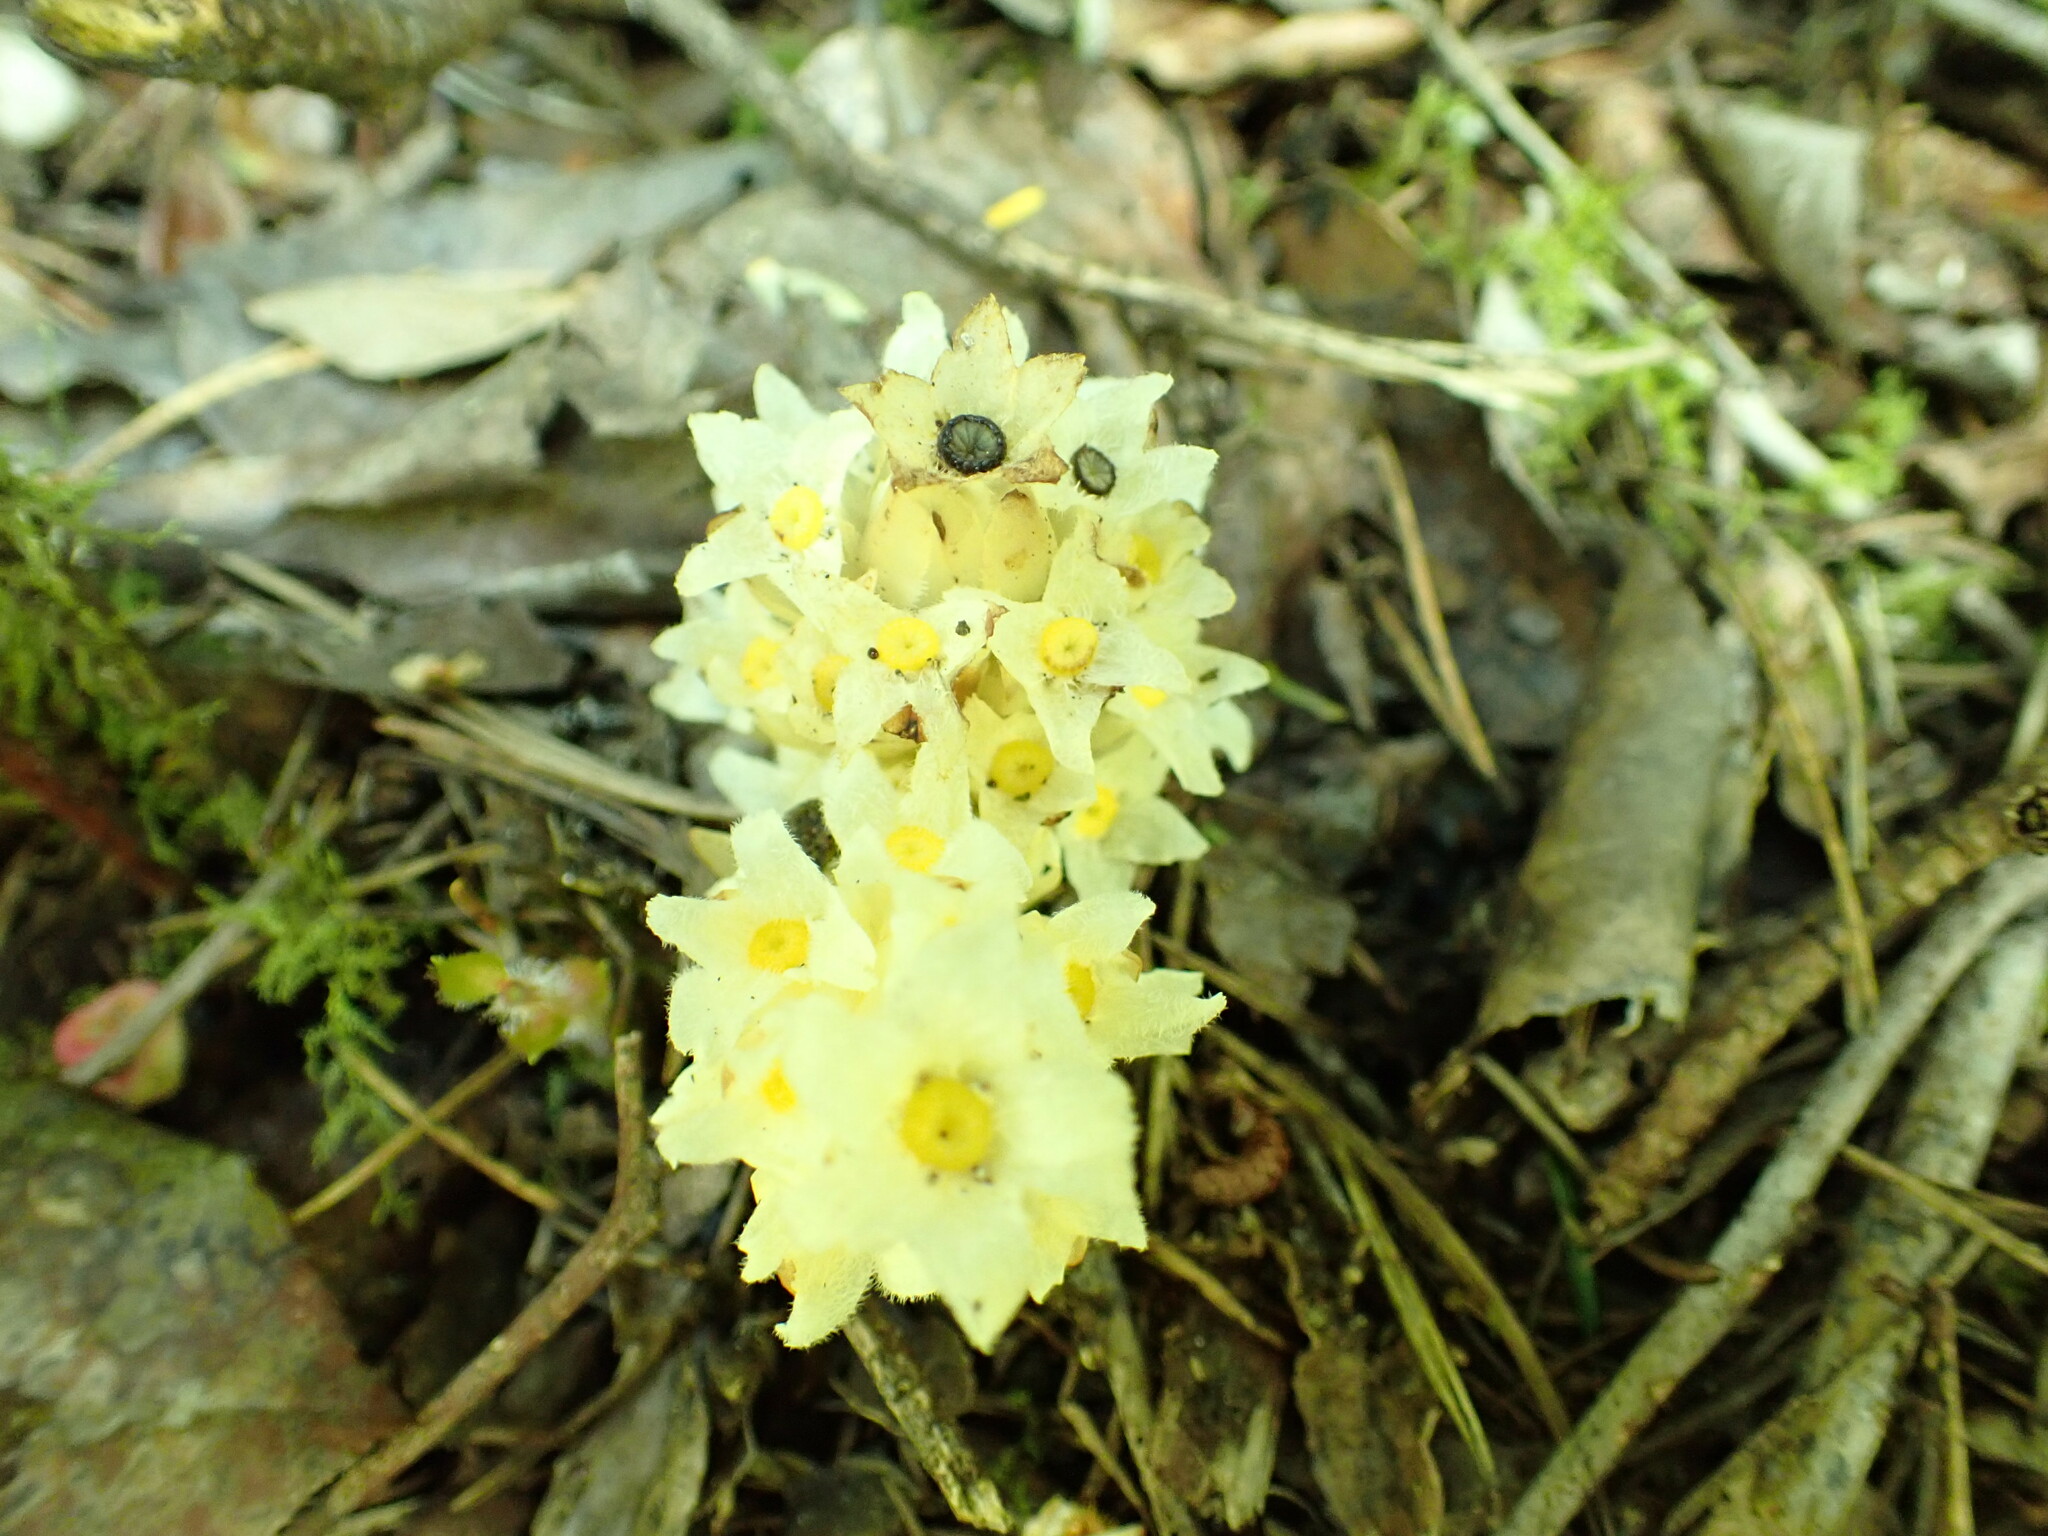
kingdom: Plantae
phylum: Tracheophyta
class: Magnoliopsida
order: Ericales
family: Ericaceae
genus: Pityopus
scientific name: Pityopus californica
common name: California pinefoot
